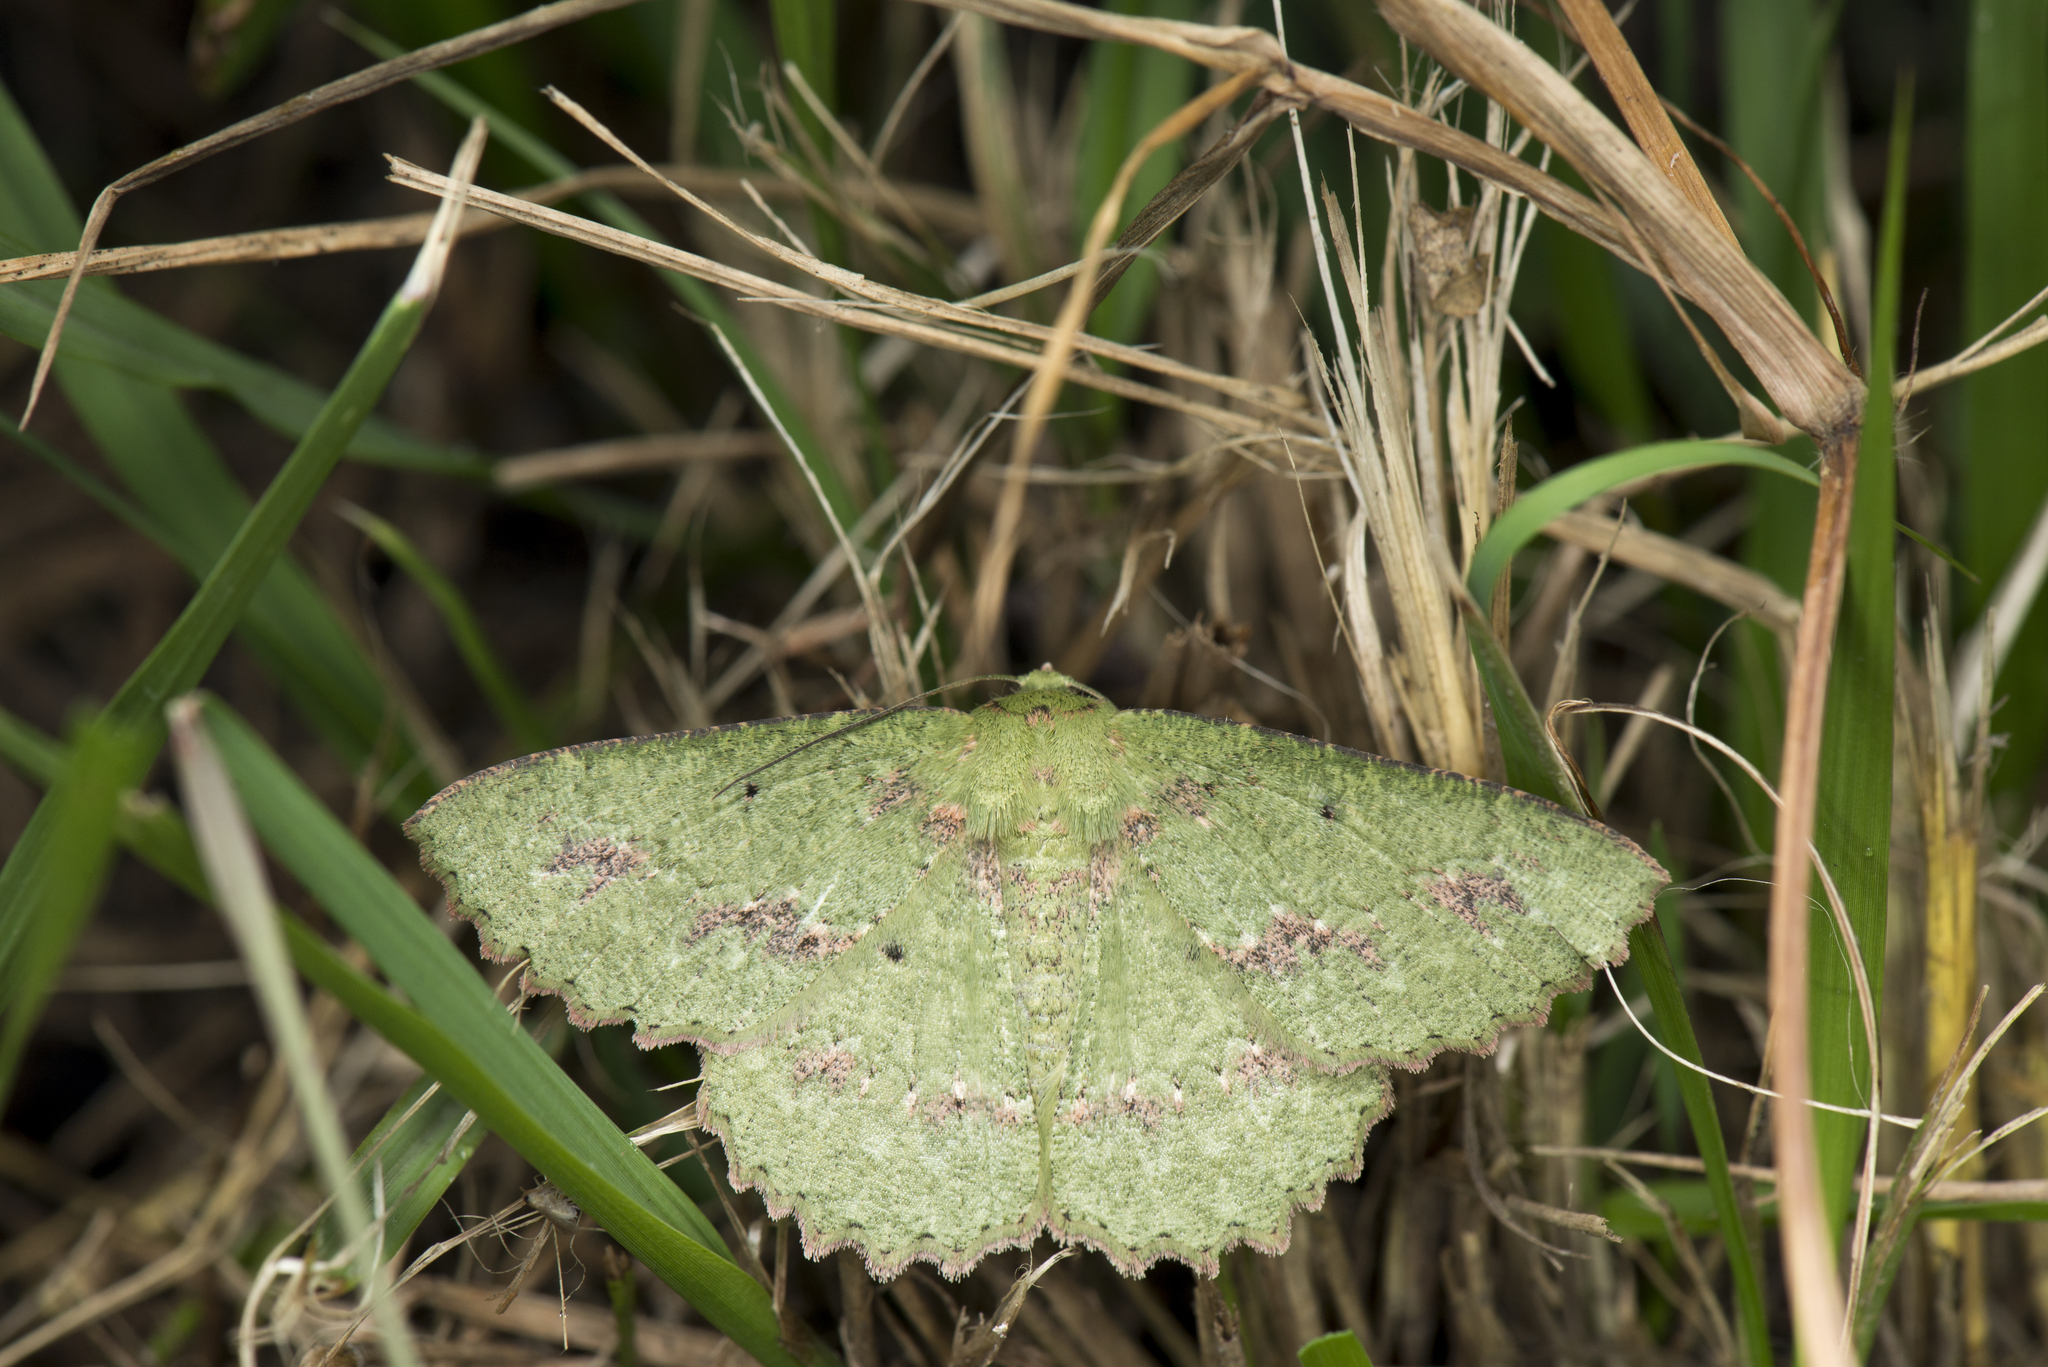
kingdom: Animalia
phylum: Arthropoda
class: Insecta
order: Lepidoptera
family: Geometridae
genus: Herochroma
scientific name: Herochroma cristata
